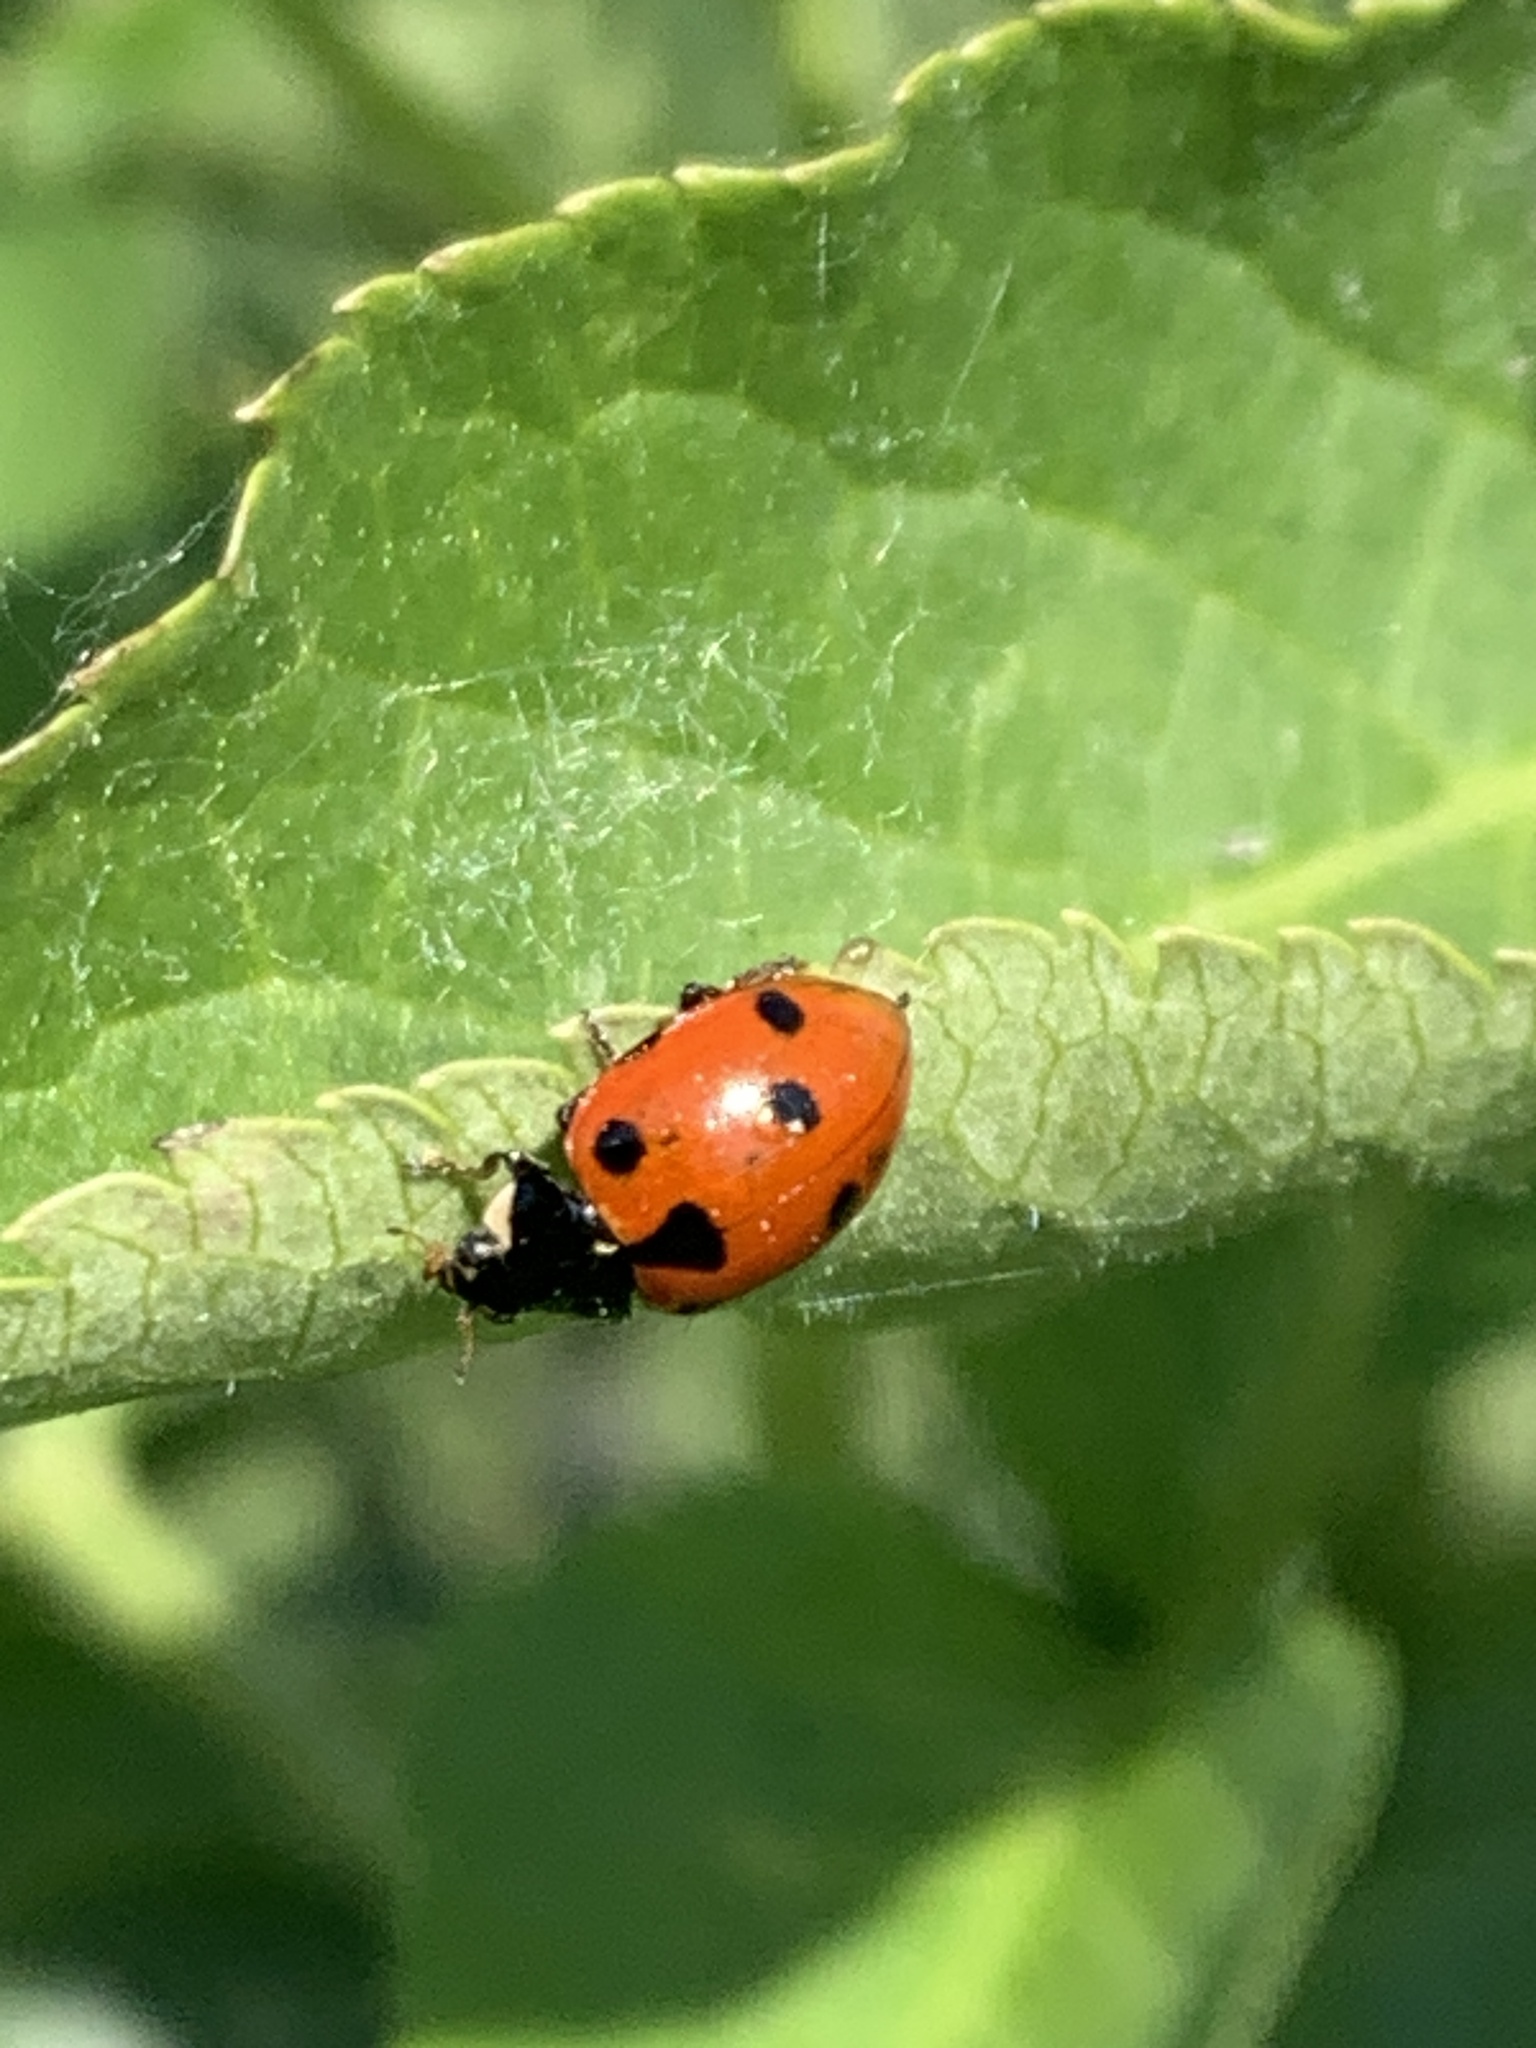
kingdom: Animalia
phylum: Arthropoda
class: Insecta
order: Coleoptera
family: Coccinellidae
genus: Ceratomegilla
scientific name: Ceratomegilla undecimnotata
